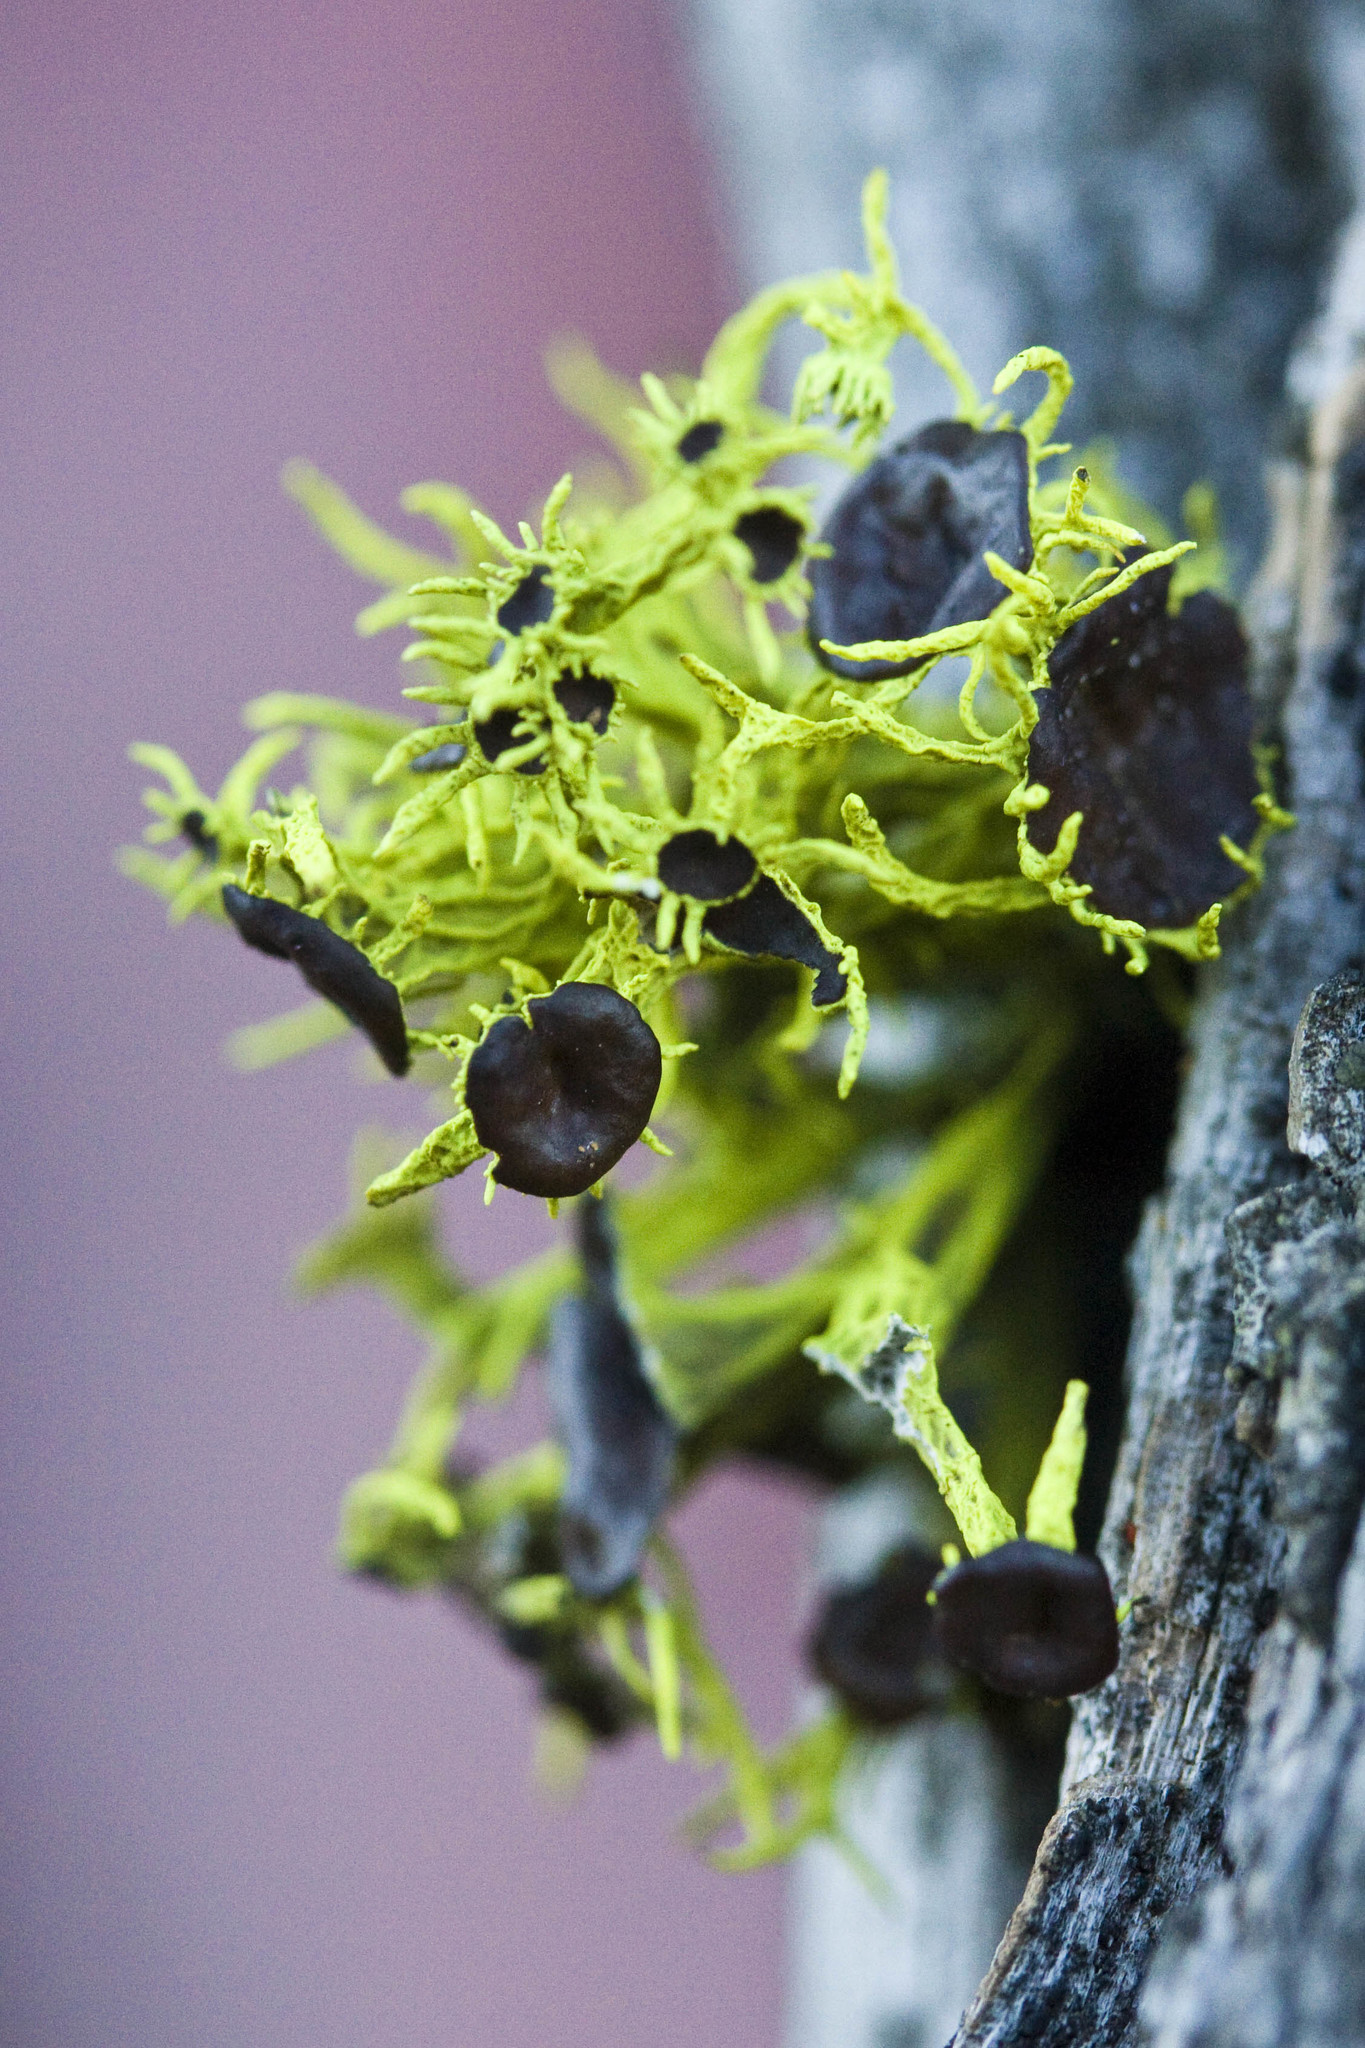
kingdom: Fungi
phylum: Ascomycota
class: Lecanoromycetes
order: Lecanorales
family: Parmeliaceae
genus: Letharia
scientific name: Letharia columbiana
